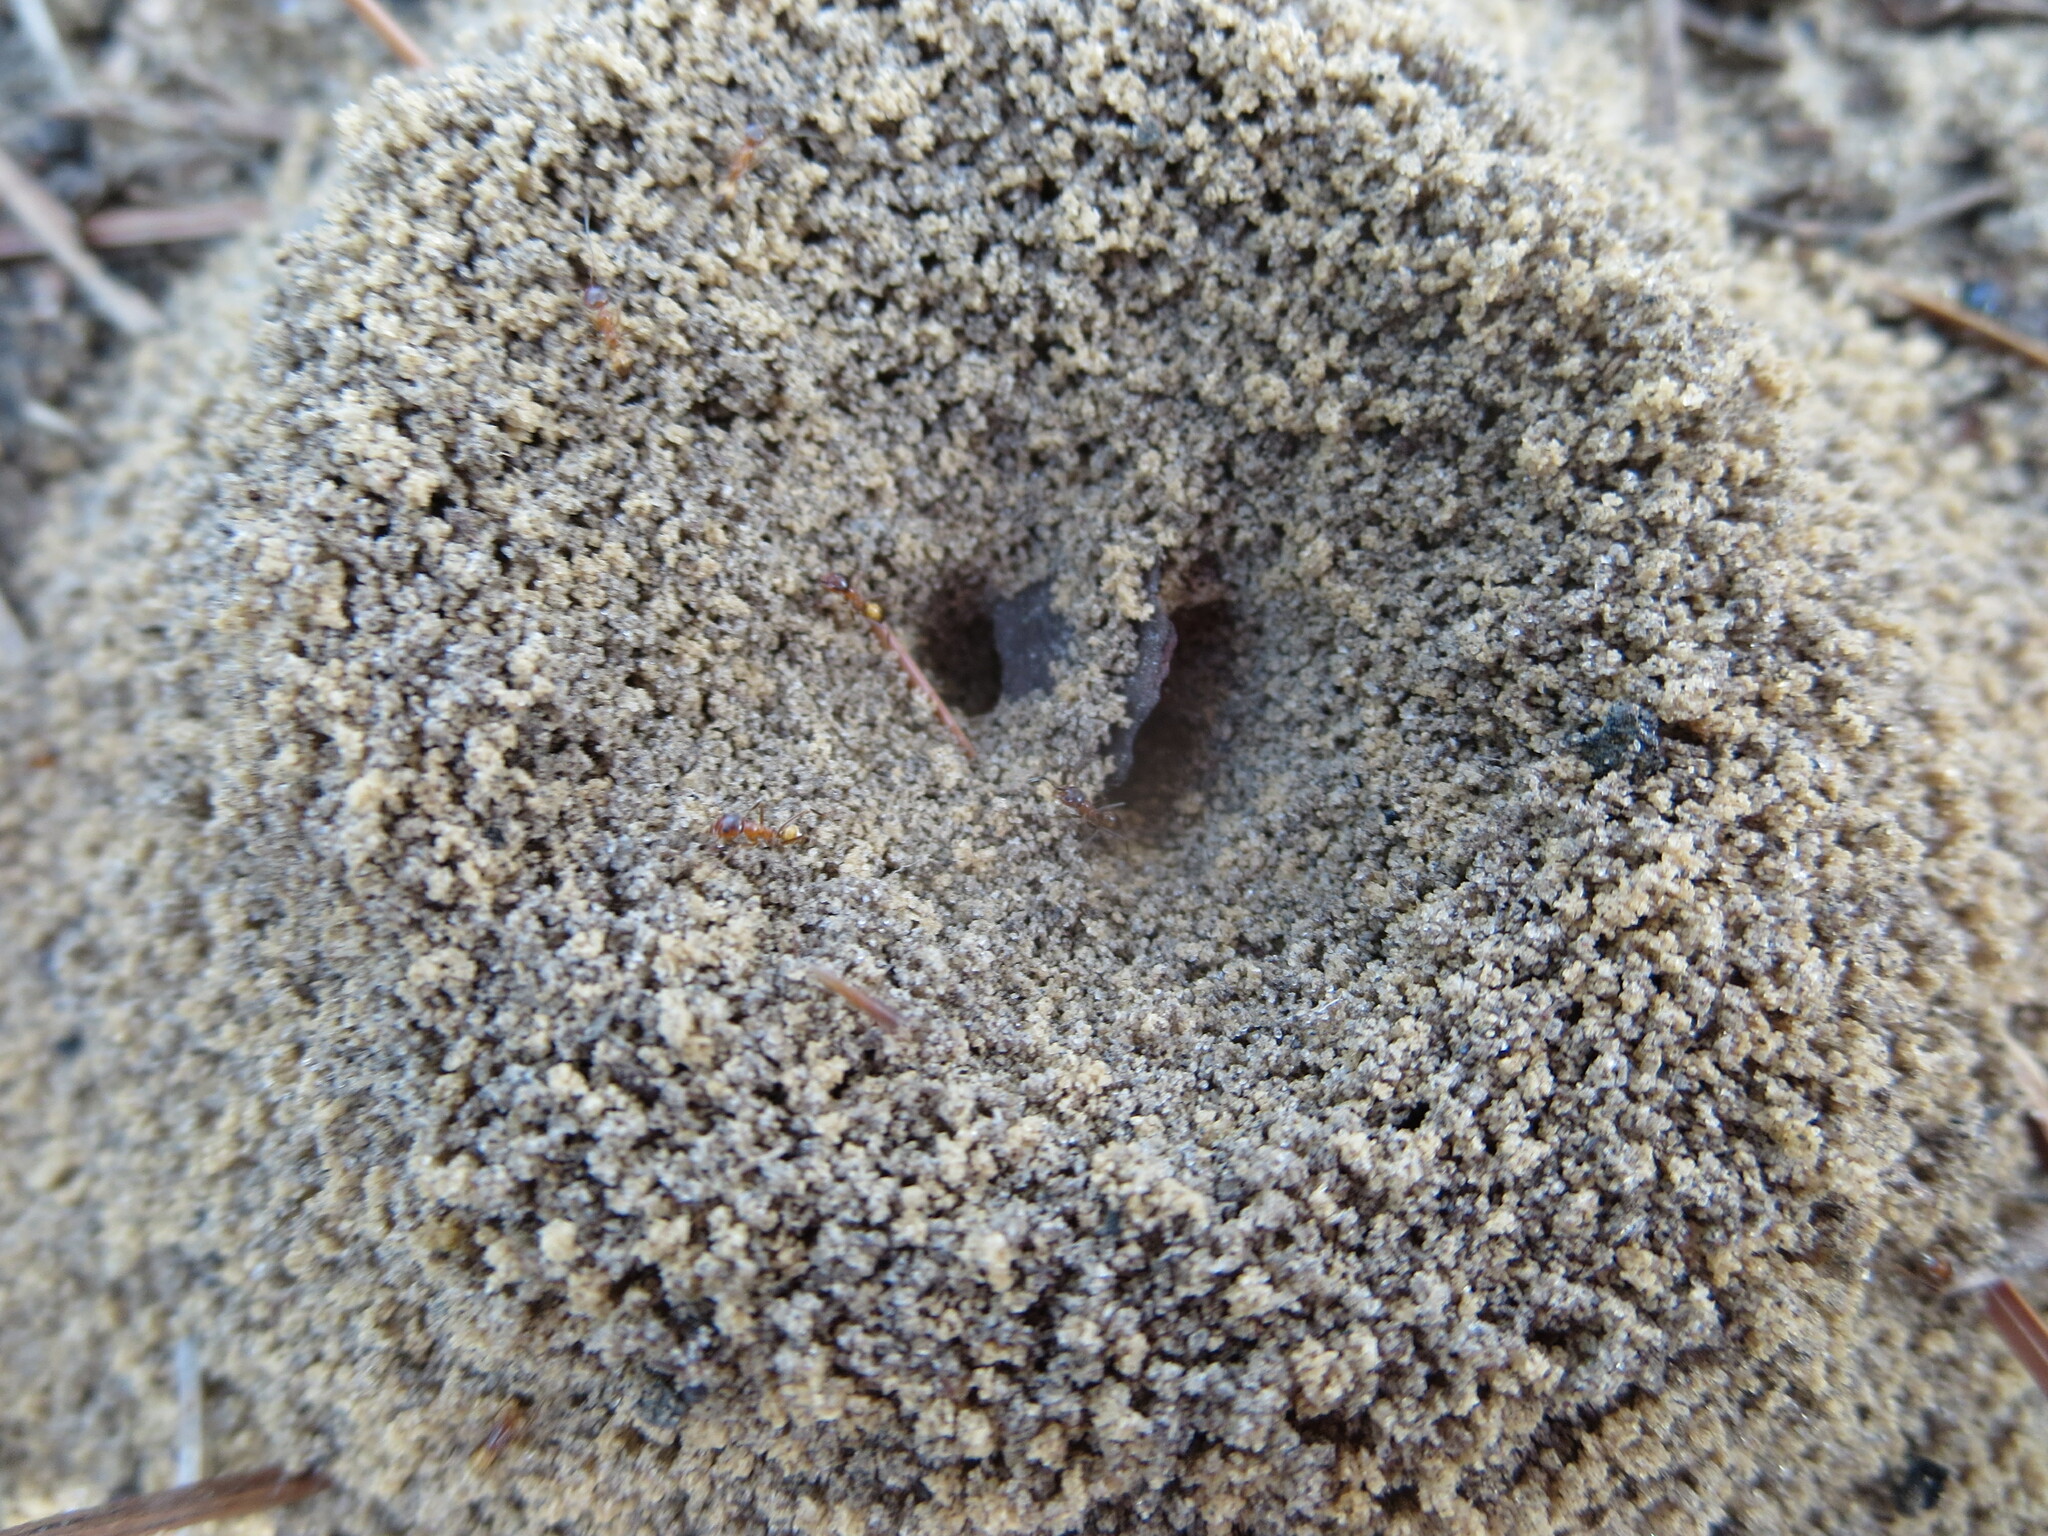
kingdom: Animalia
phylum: Arthropoda
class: Insecta
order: Hymenoptera
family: Formicidae
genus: Dorymyrmex
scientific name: Dorymyrmex bureni
